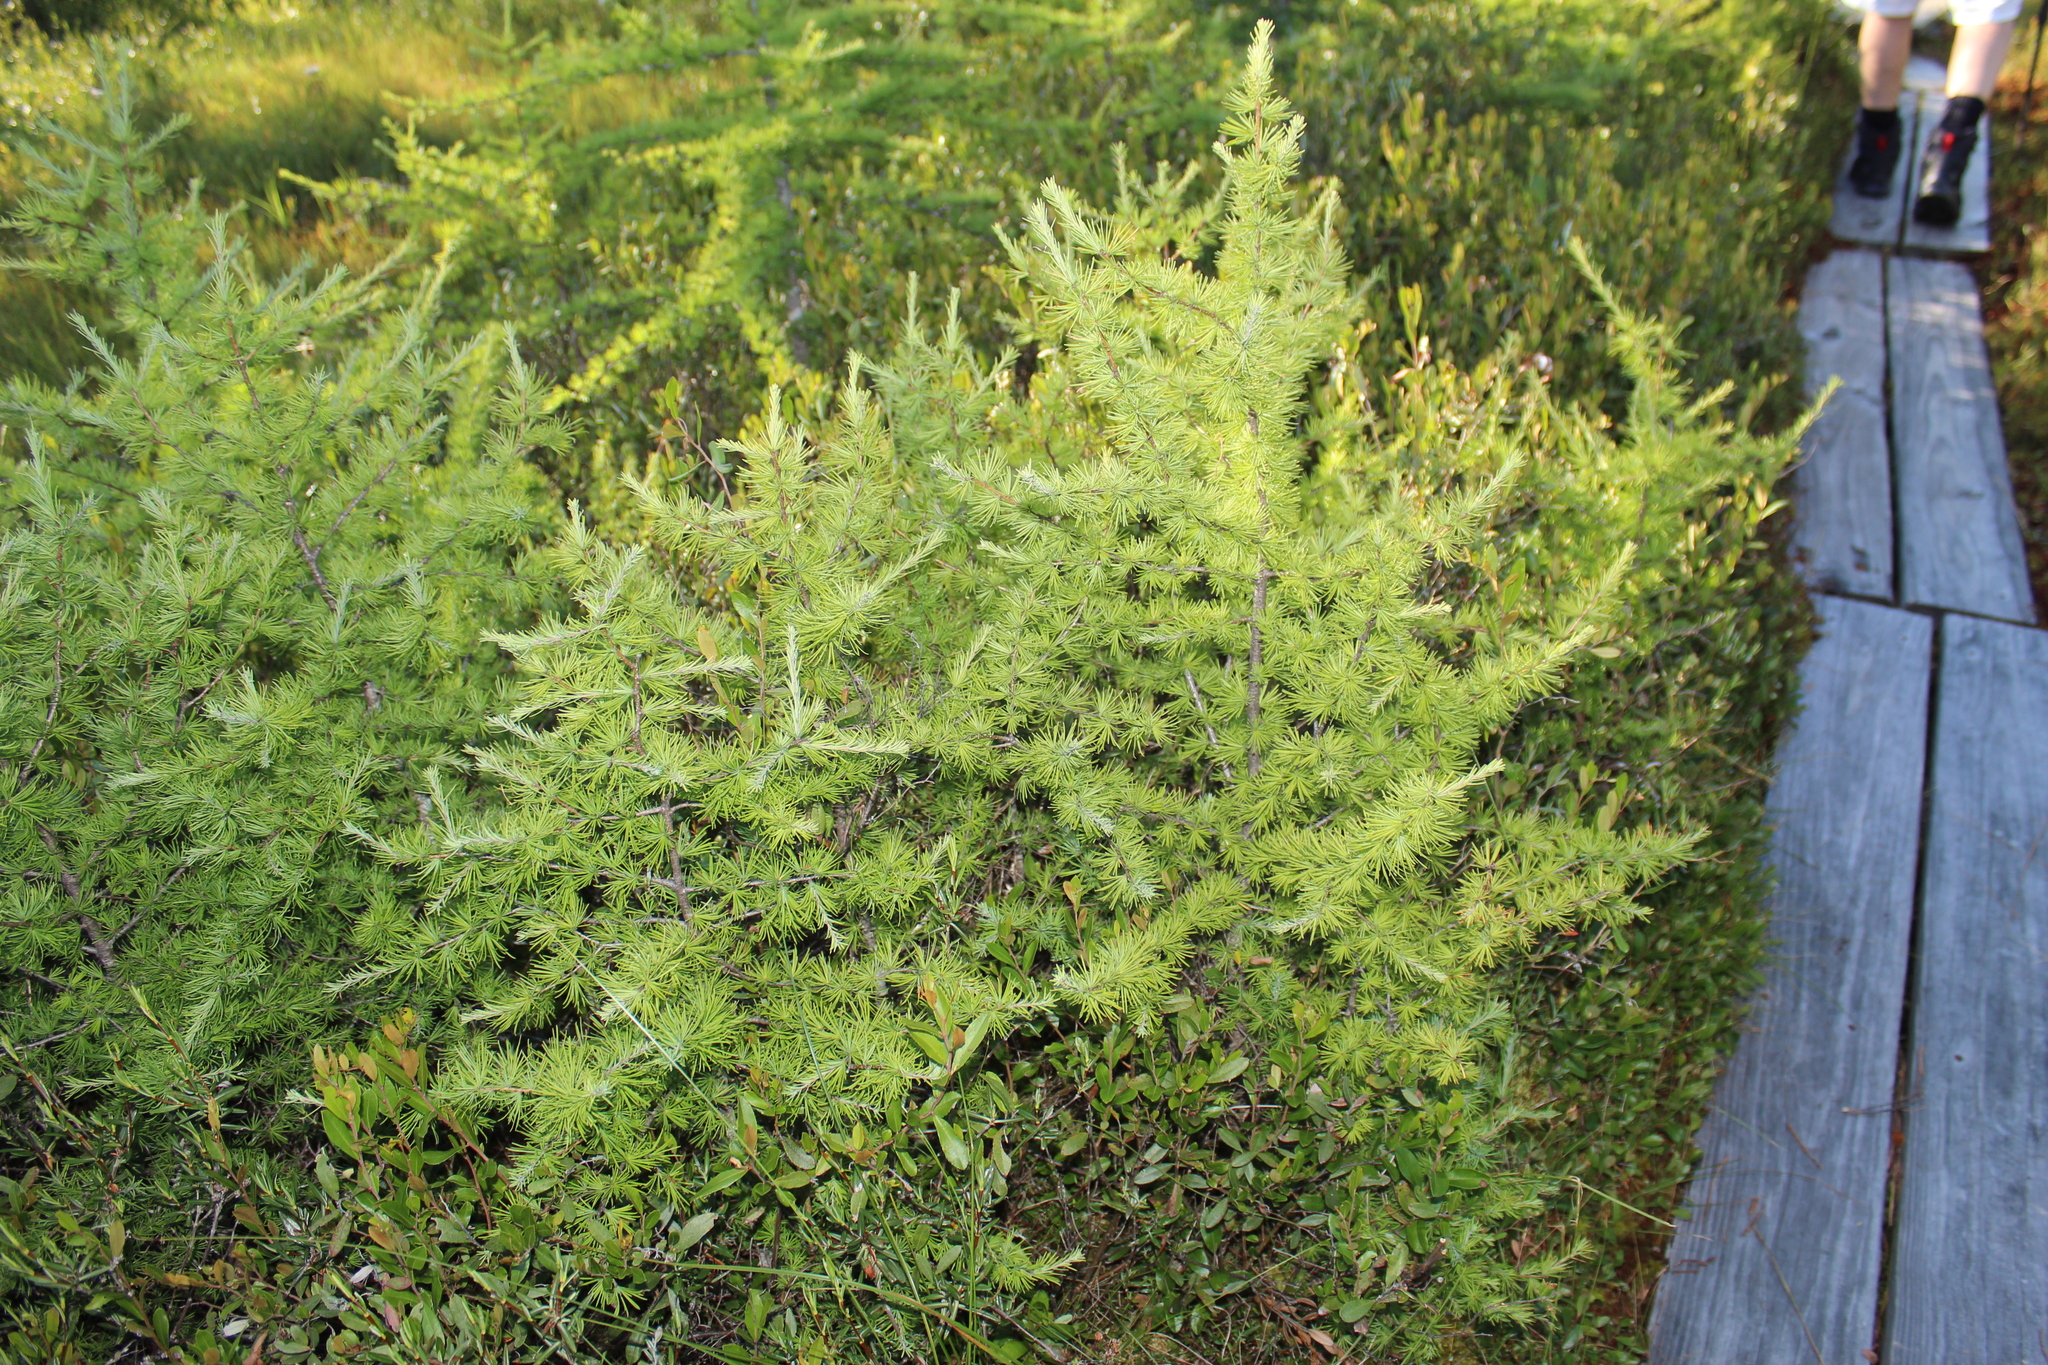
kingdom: Plantae
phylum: Tracheophyta
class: Pinopsida
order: Pinales
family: Pinaceae
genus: Larix
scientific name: Larix laricina
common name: American larch
